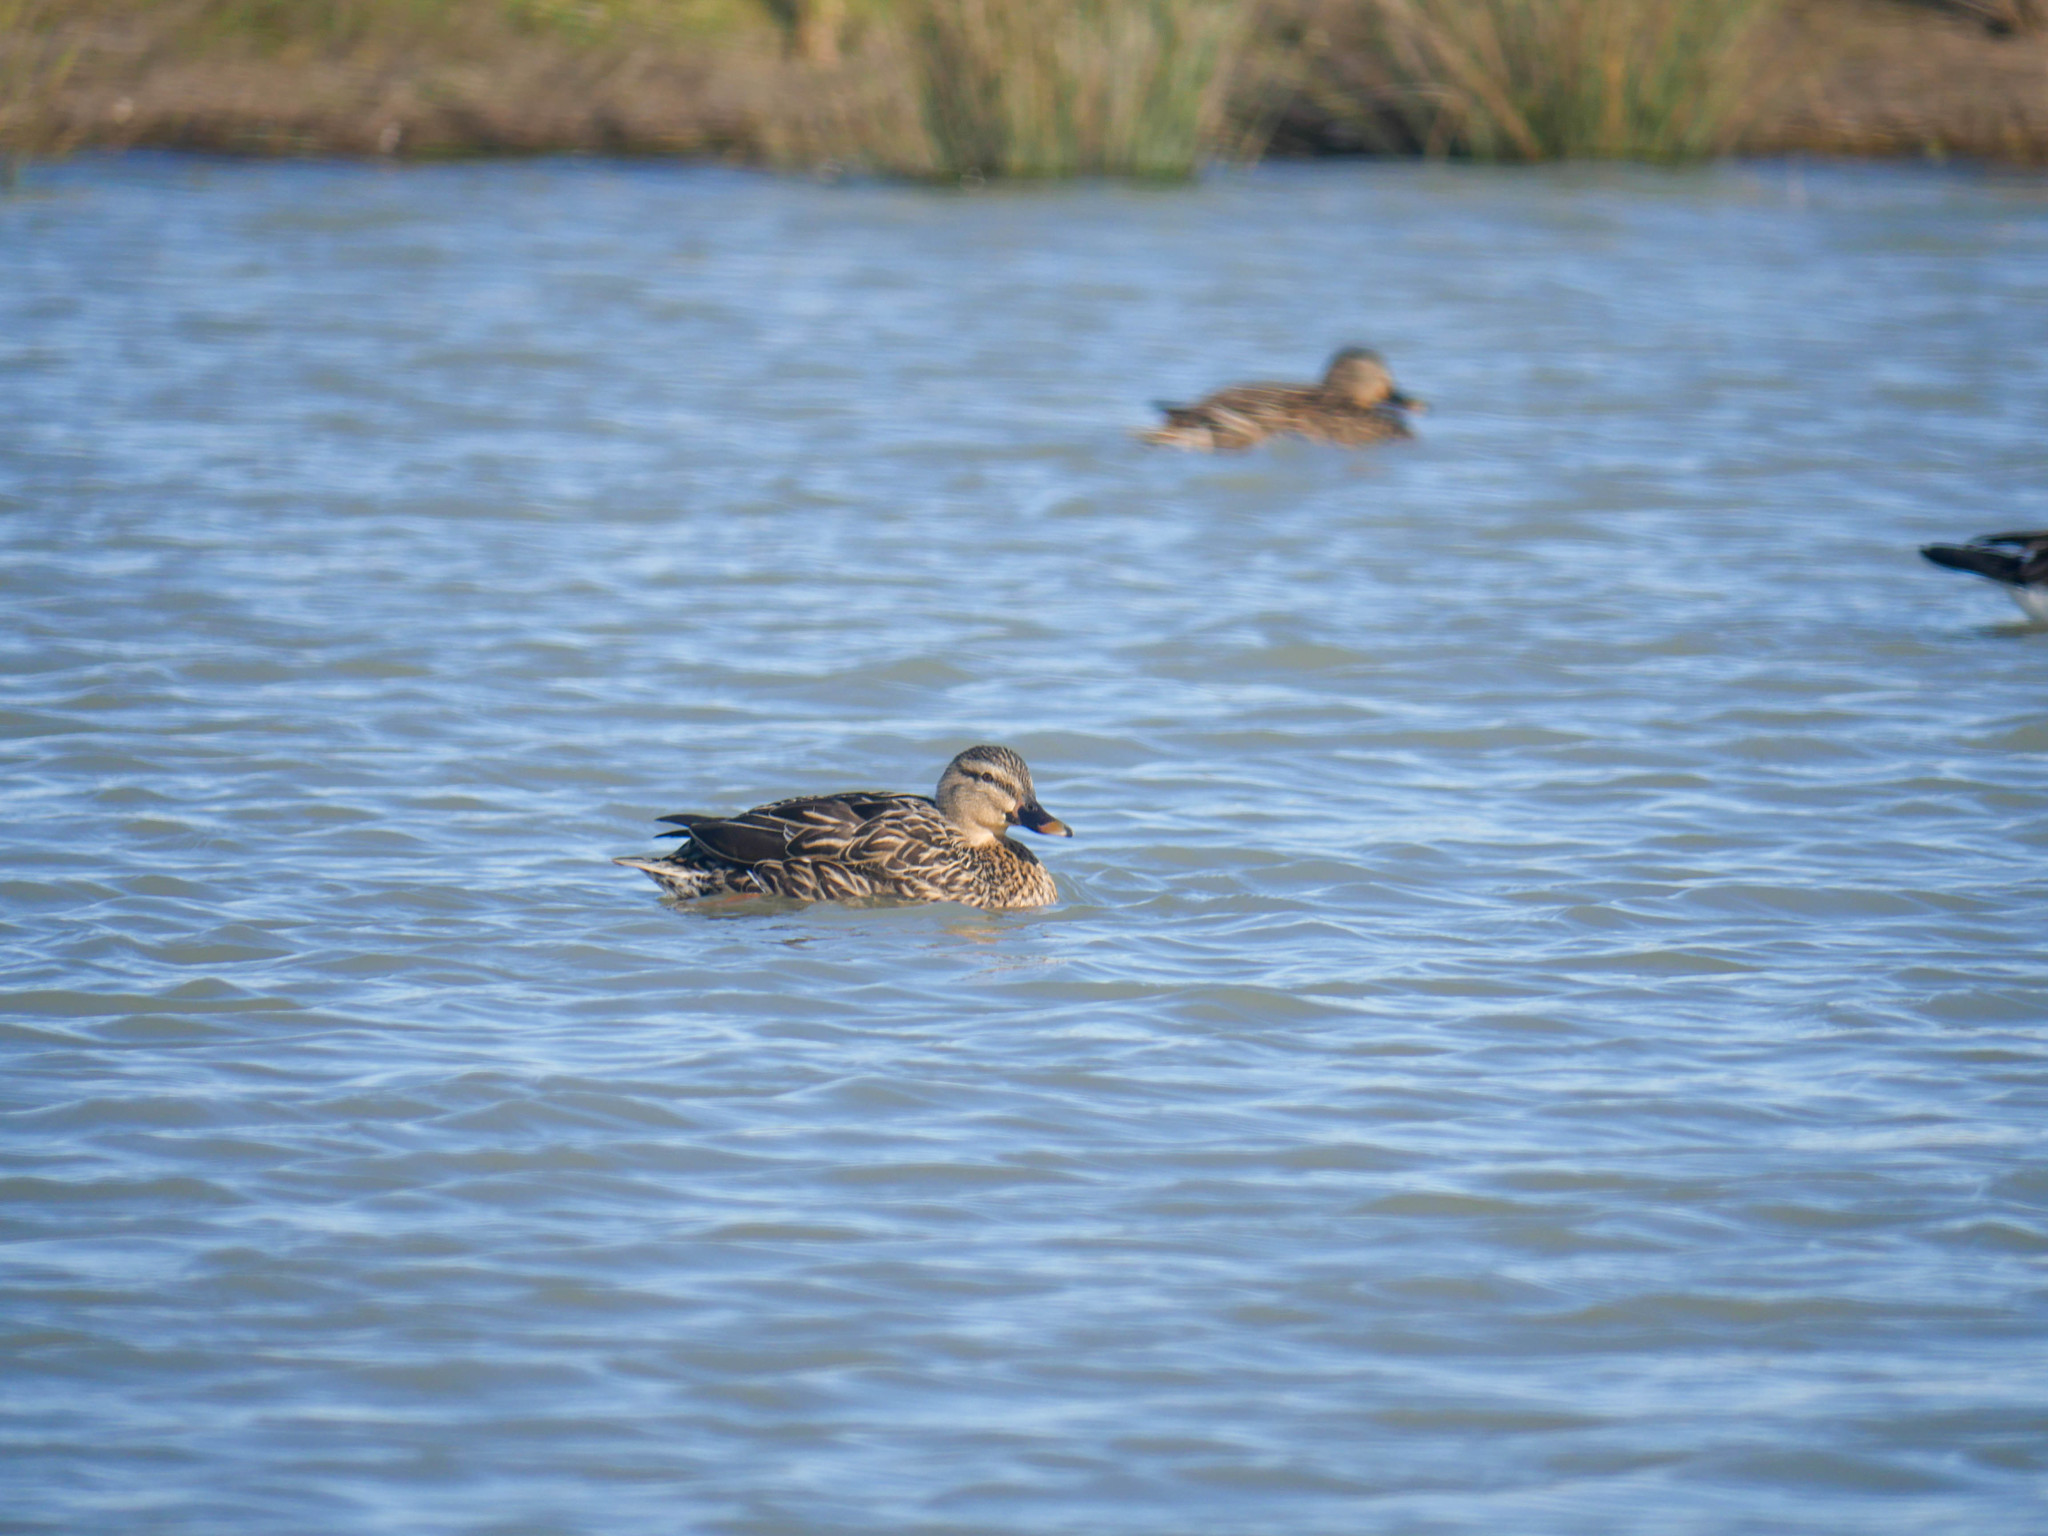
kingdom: Animalia
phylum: Chordata
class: Aves
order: Anseriformes
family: Anatidae
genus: Anas
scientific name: Anas platyrhynchos
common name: Mallard
